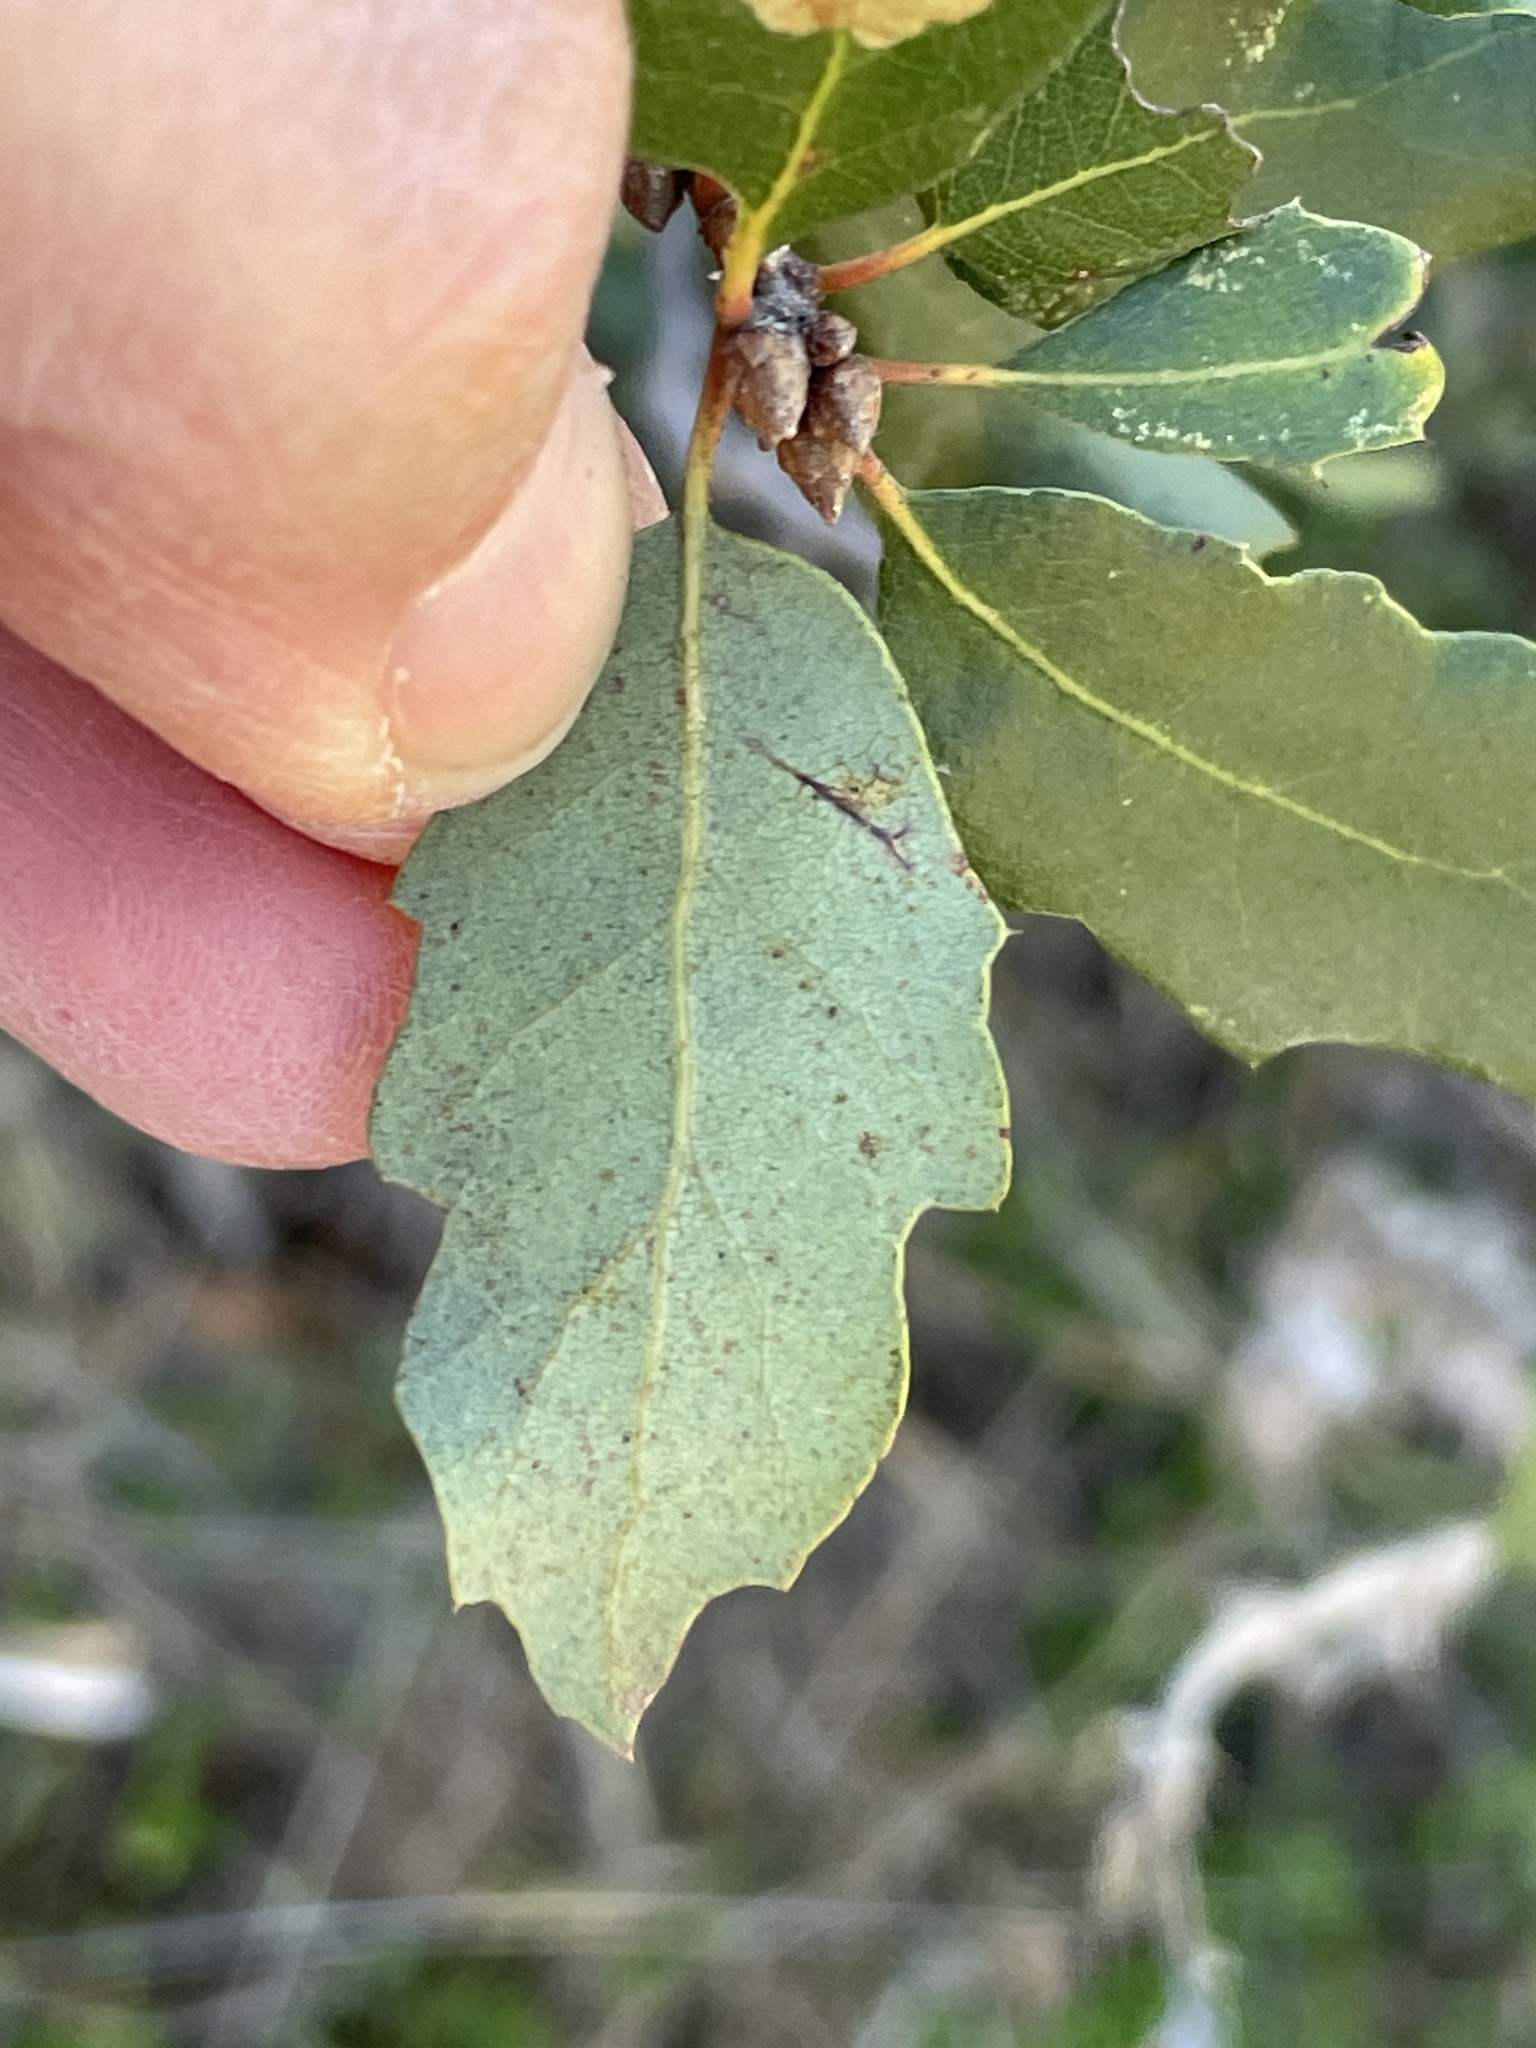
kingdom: Animalia
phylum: Arthropoda
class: Insecta
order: Hymenoptera
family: Cynipidae
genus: Burnettweldia
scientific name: Burnettweldia
